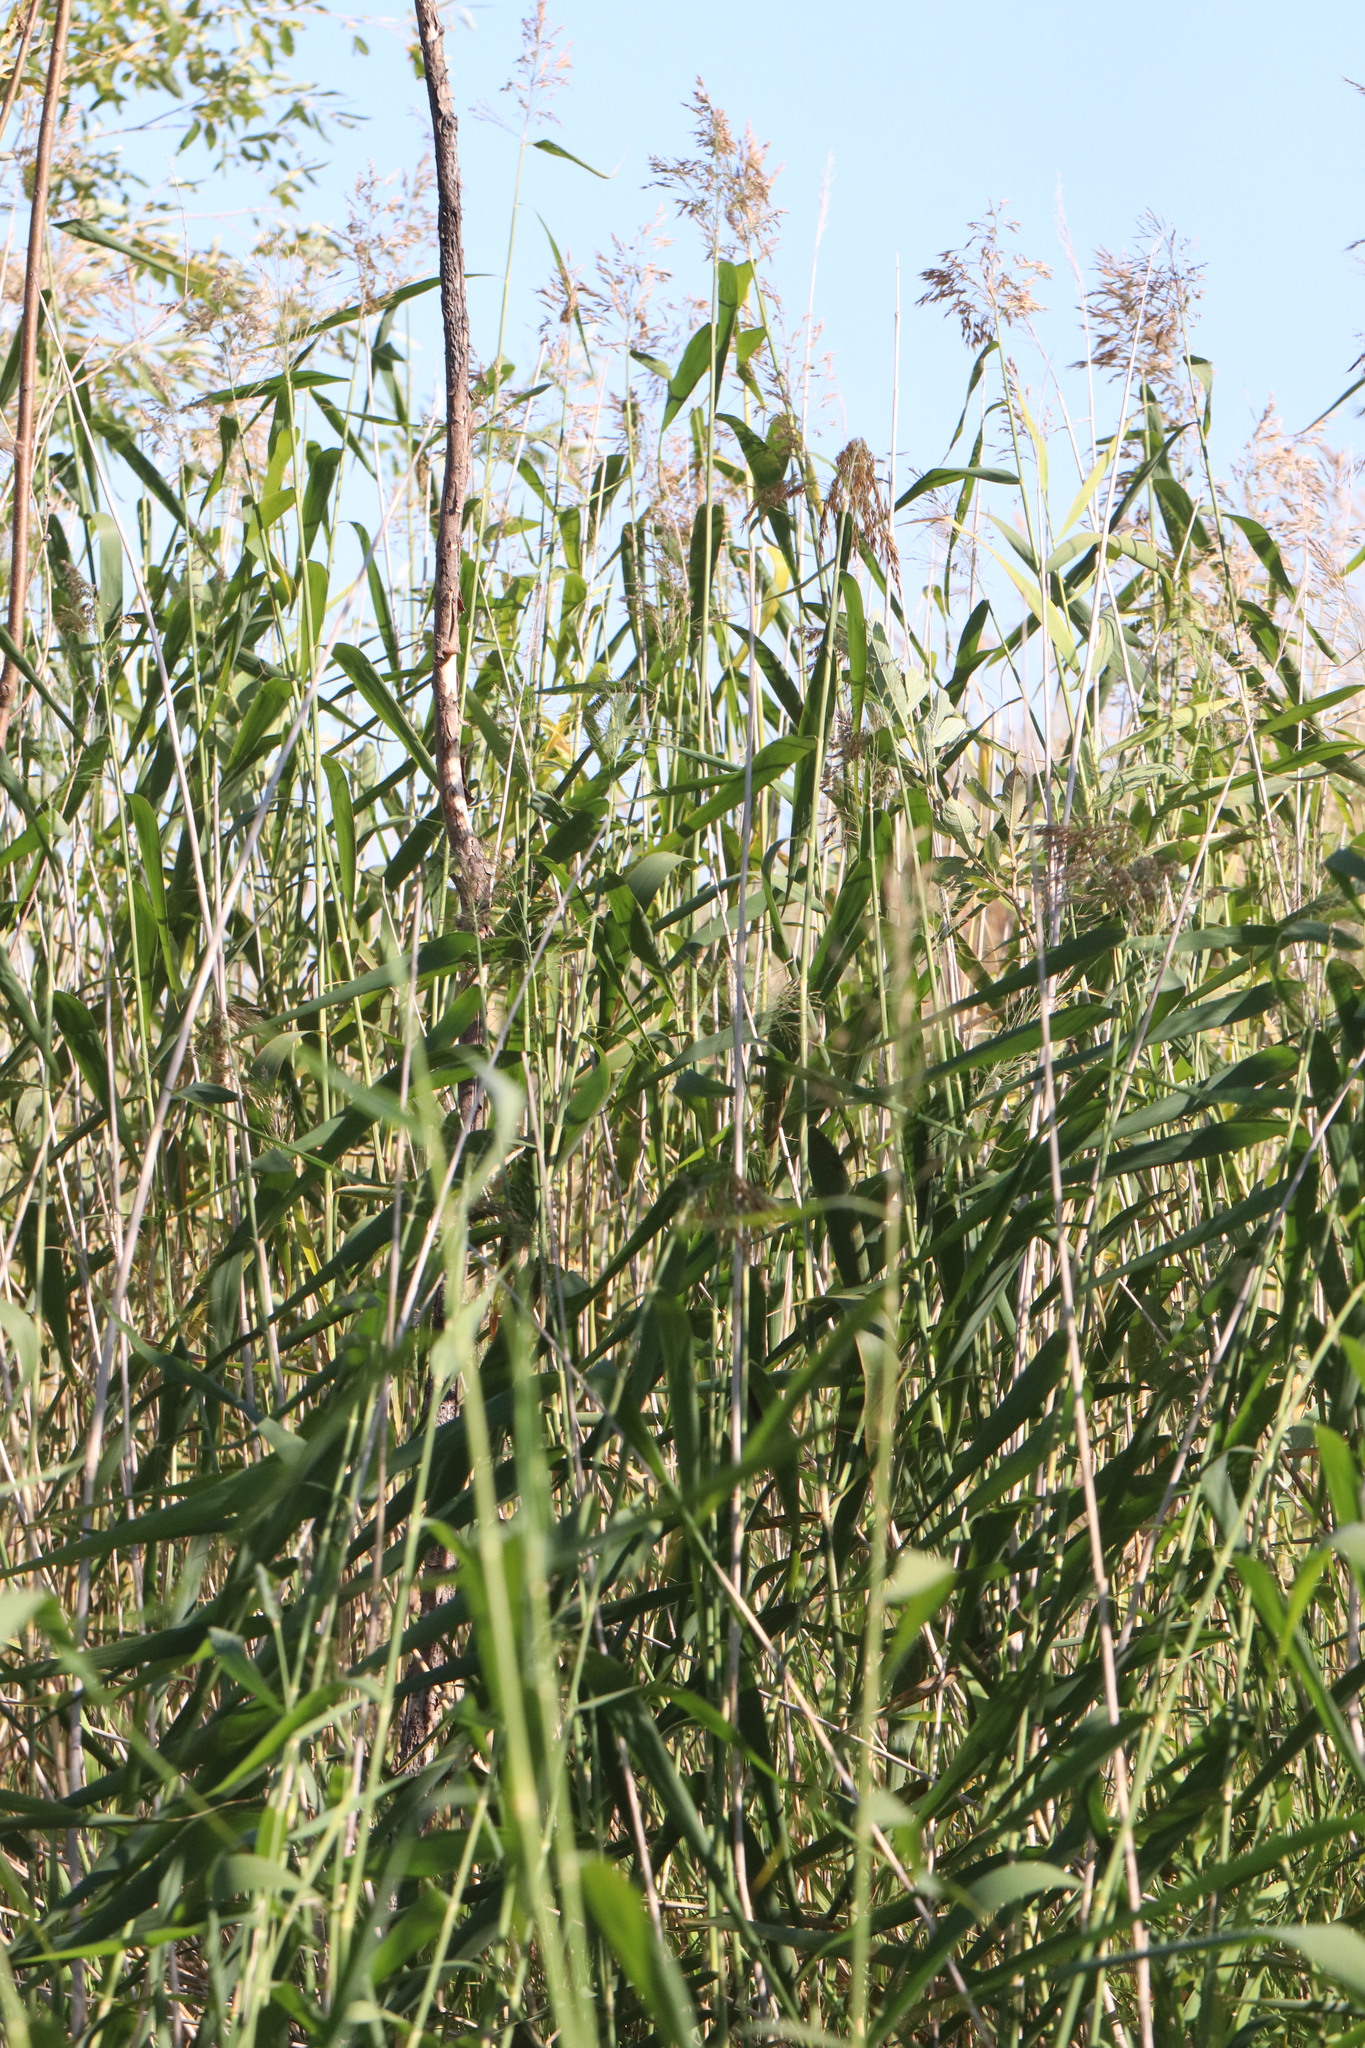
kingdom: Plantae
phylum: Tracheophyta
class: Liliopsida
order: Poales
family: Poaceae
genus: Phragmites
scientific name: Phragmites australis
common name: Common reed
